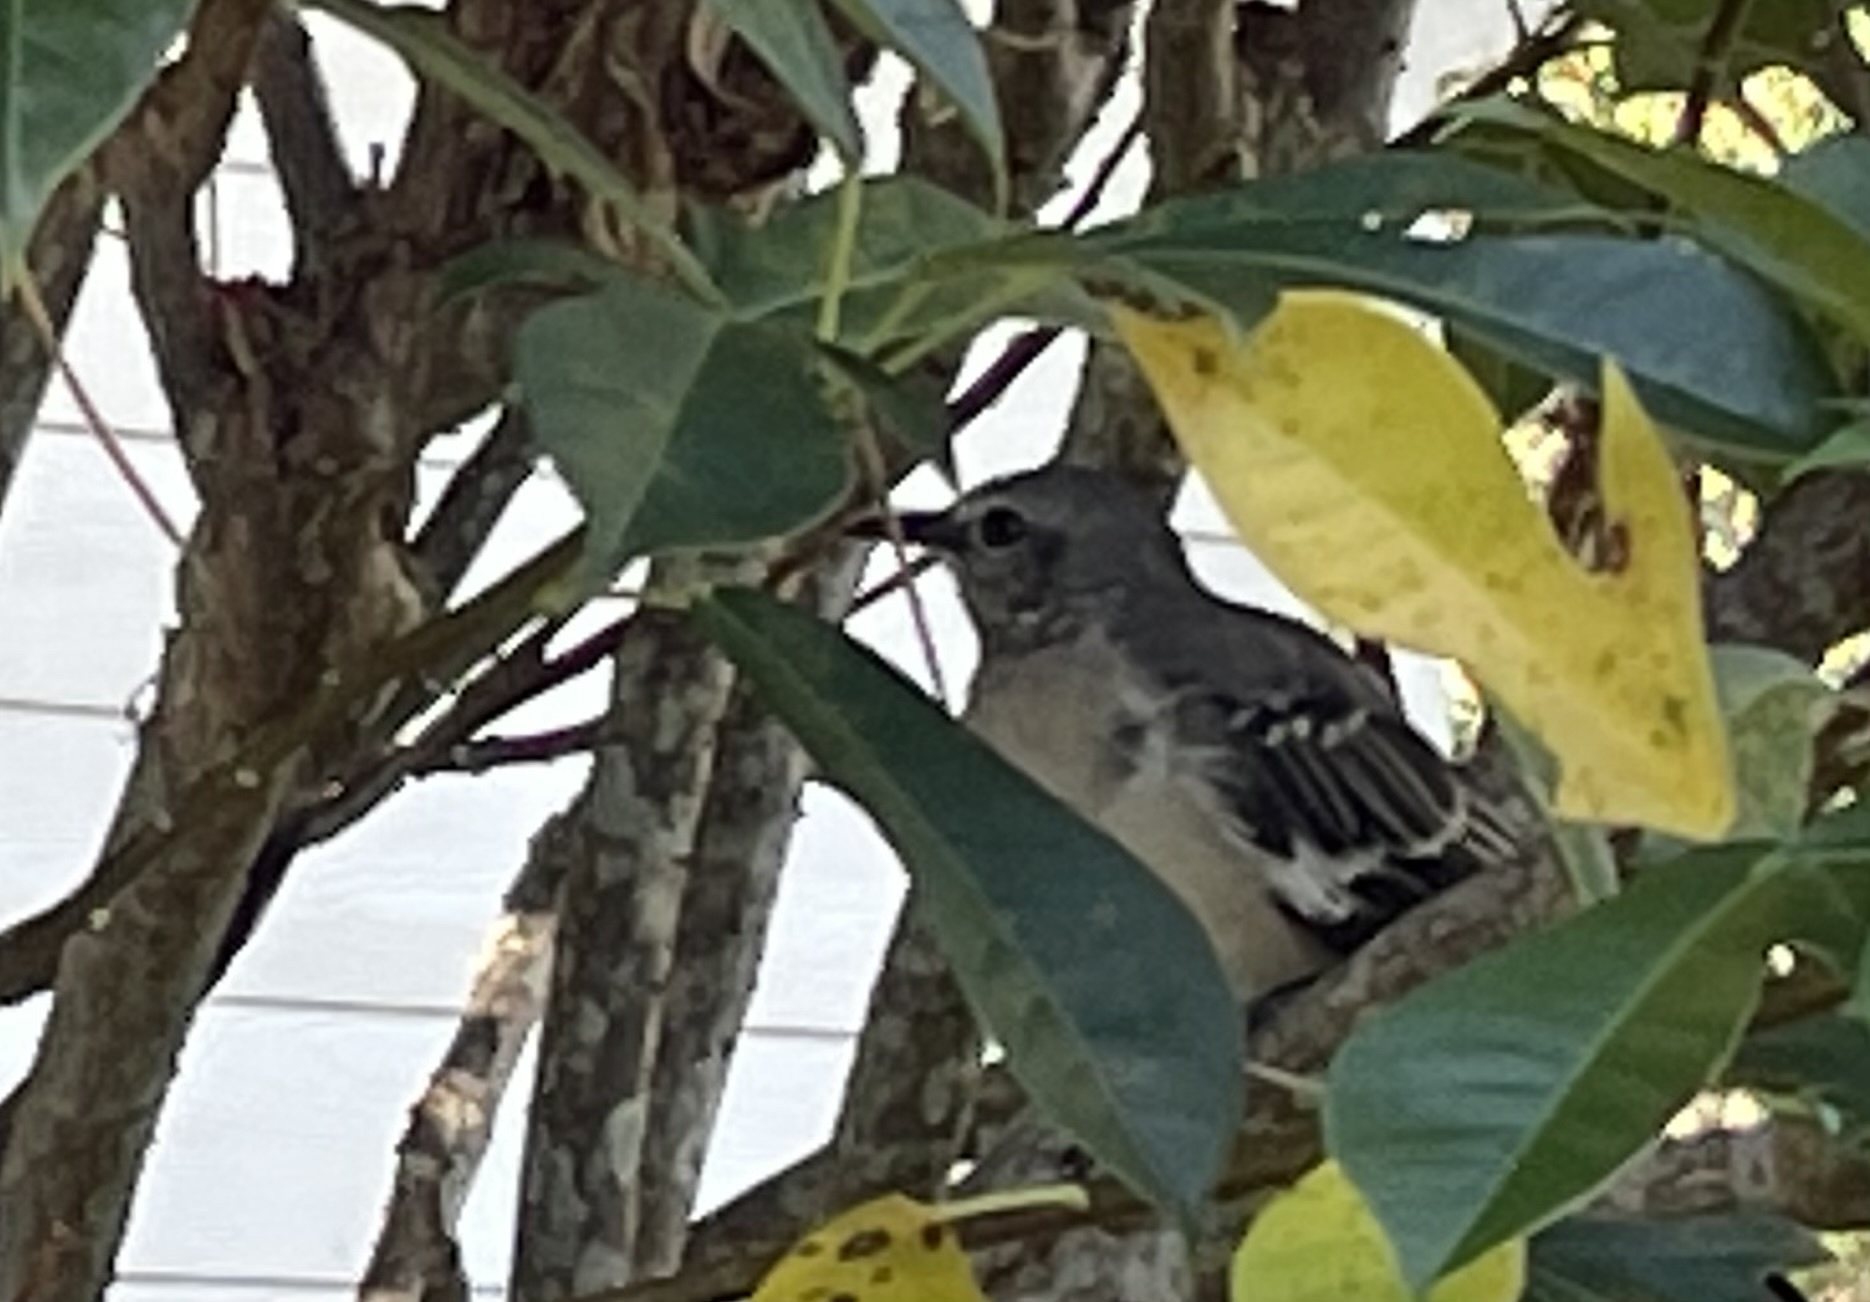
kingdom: Animalia
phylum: Chordata
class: Aves
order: Passeriformes
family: Mimidae
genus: Mimus
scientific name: Mimus polyglottos
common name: Northern mockingbird
